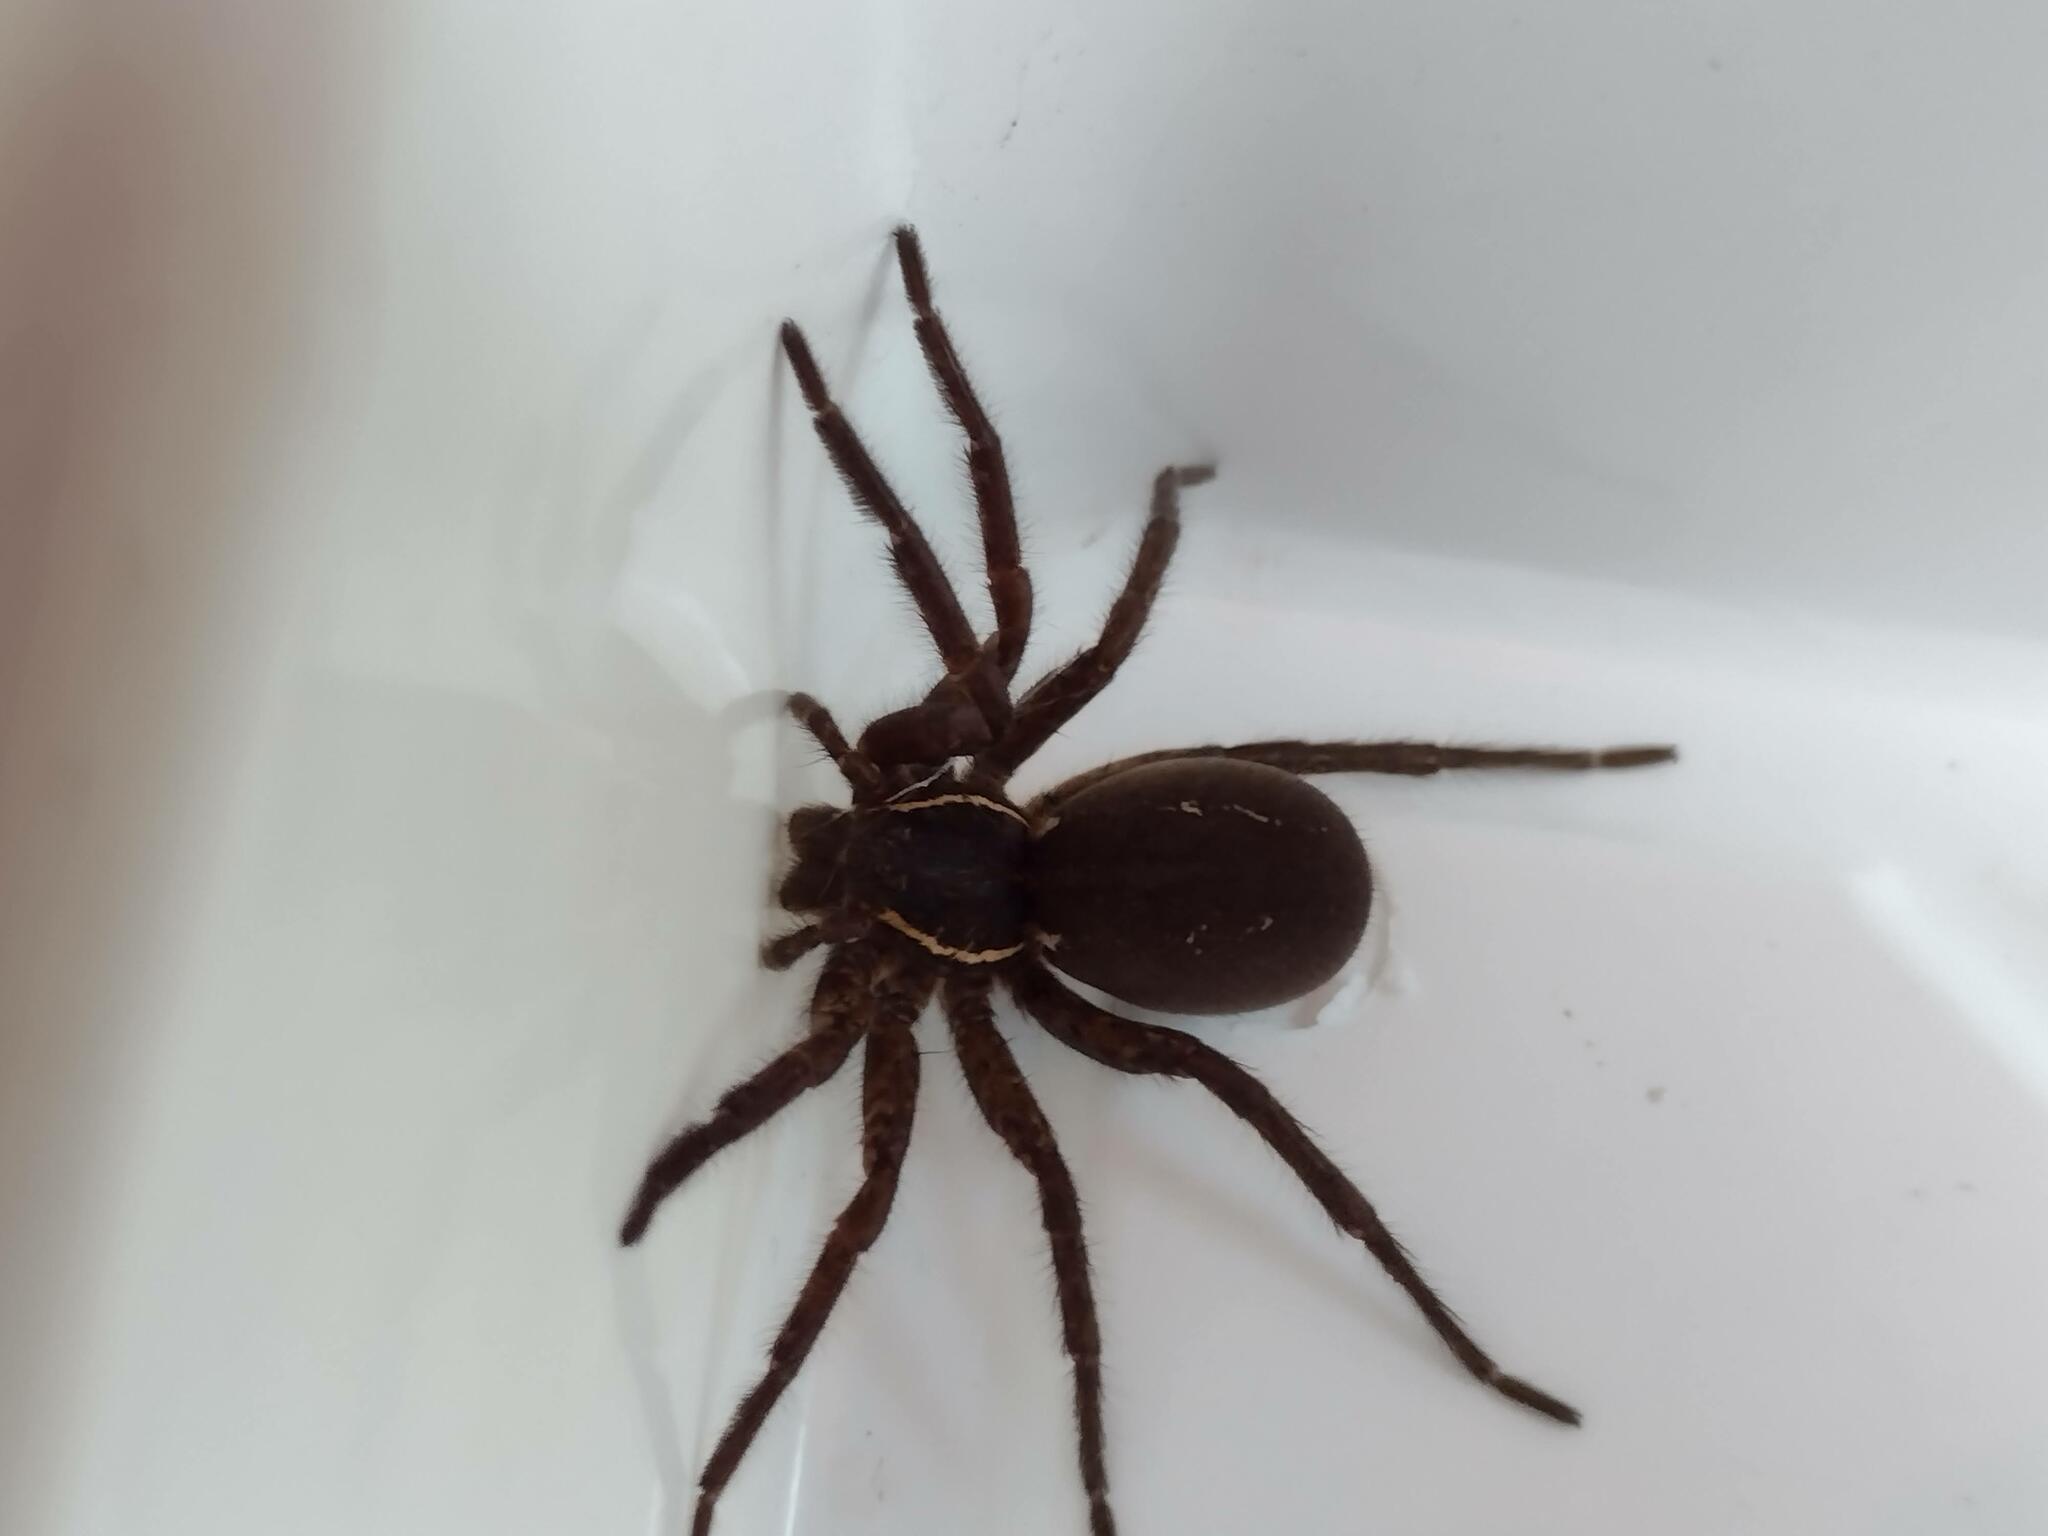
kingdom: Animalia
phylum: Arthropoda
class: Arachnida
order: Araneae
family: Lycosidae
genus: Aglaoctenus
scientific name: Aglaoctenus oblongus
